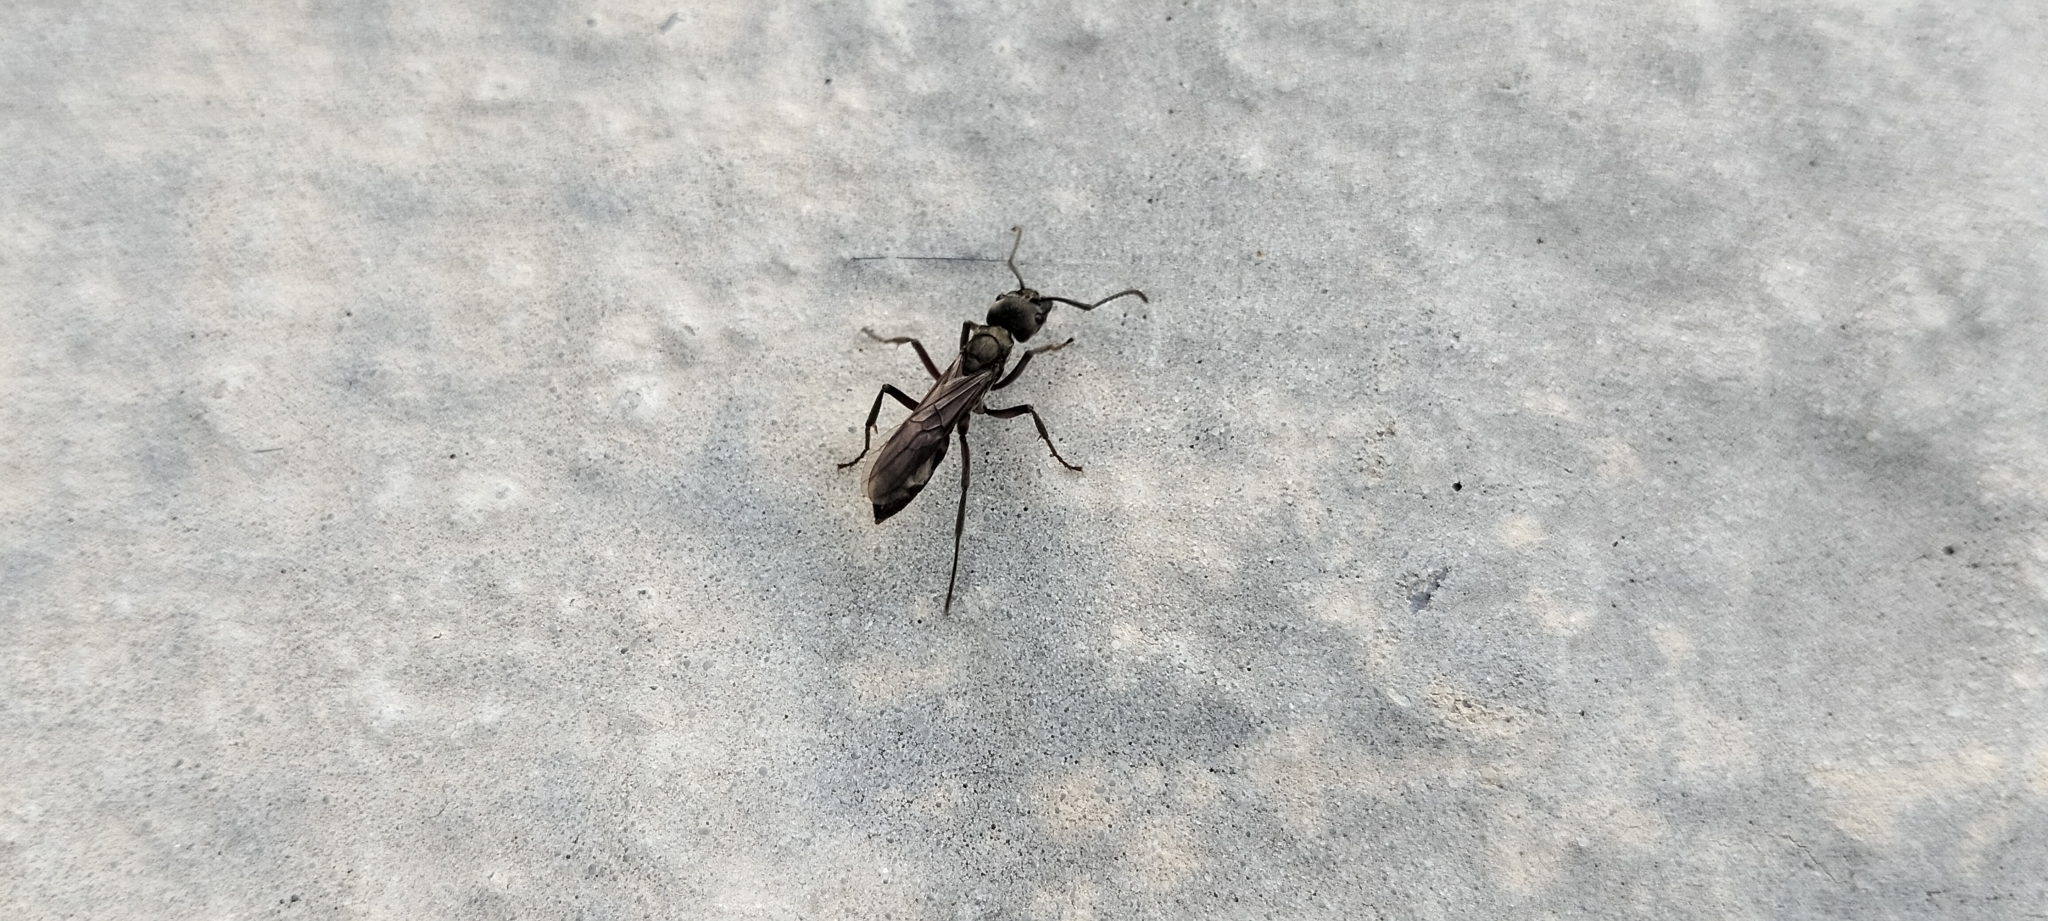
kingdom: Animalia
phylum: Arthropoda
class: Insecta
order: Hymenoptera
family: Formicidae
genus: Pachycondyla
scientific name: Pachycondyla villosa
